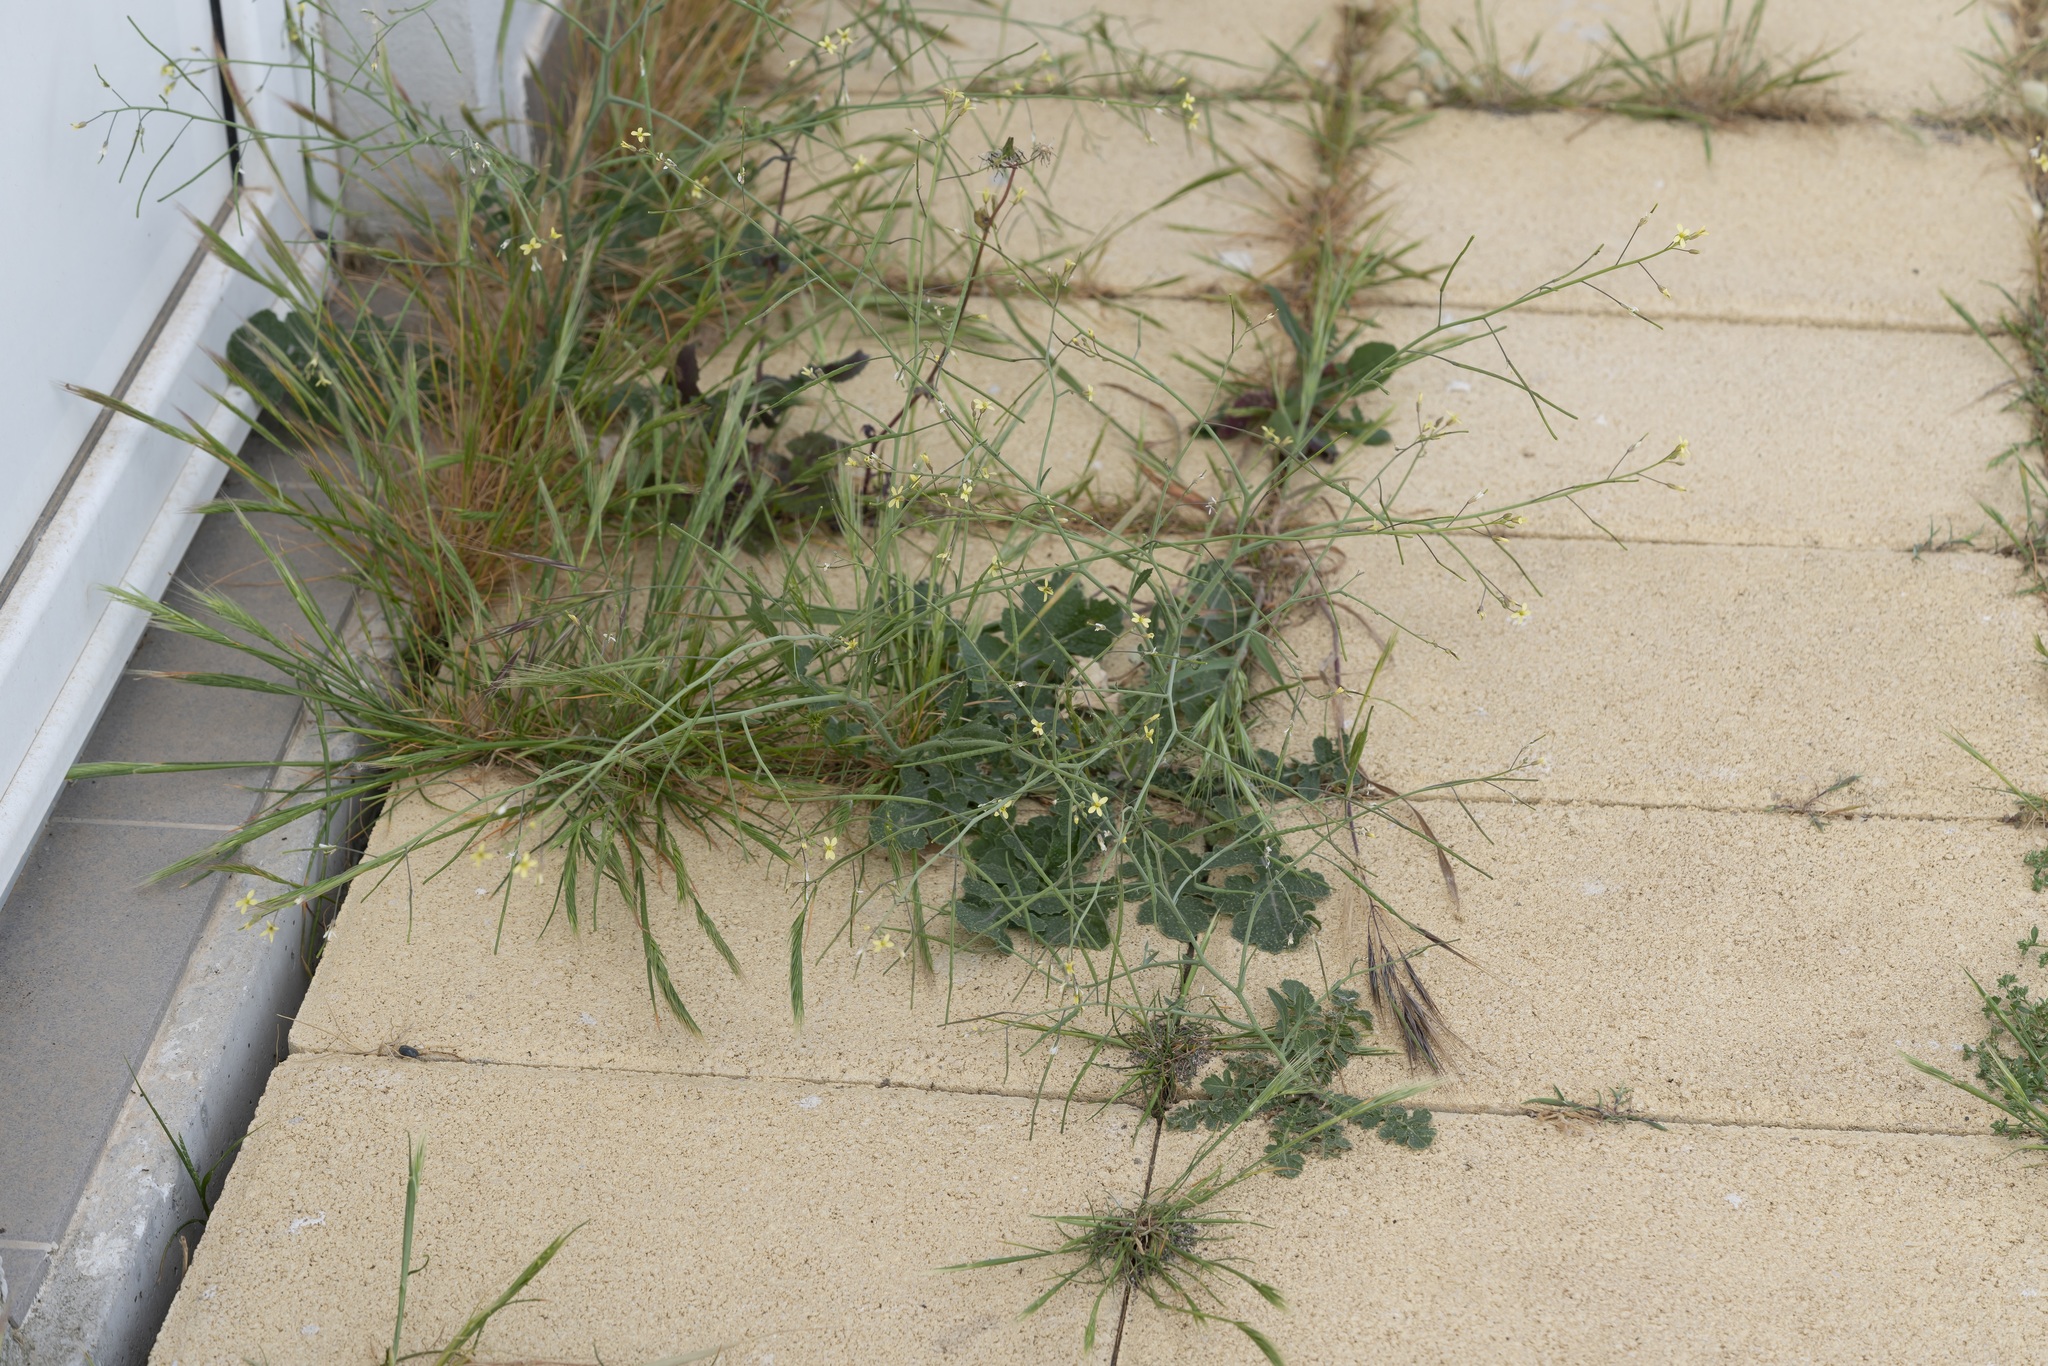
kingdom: Plantae
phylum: Tracheophyta
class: Magnoliopsida
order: Brassicales
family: Brassicaceae
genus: Brassica
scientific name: Brassica tournefortii
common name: Pale cabbage
